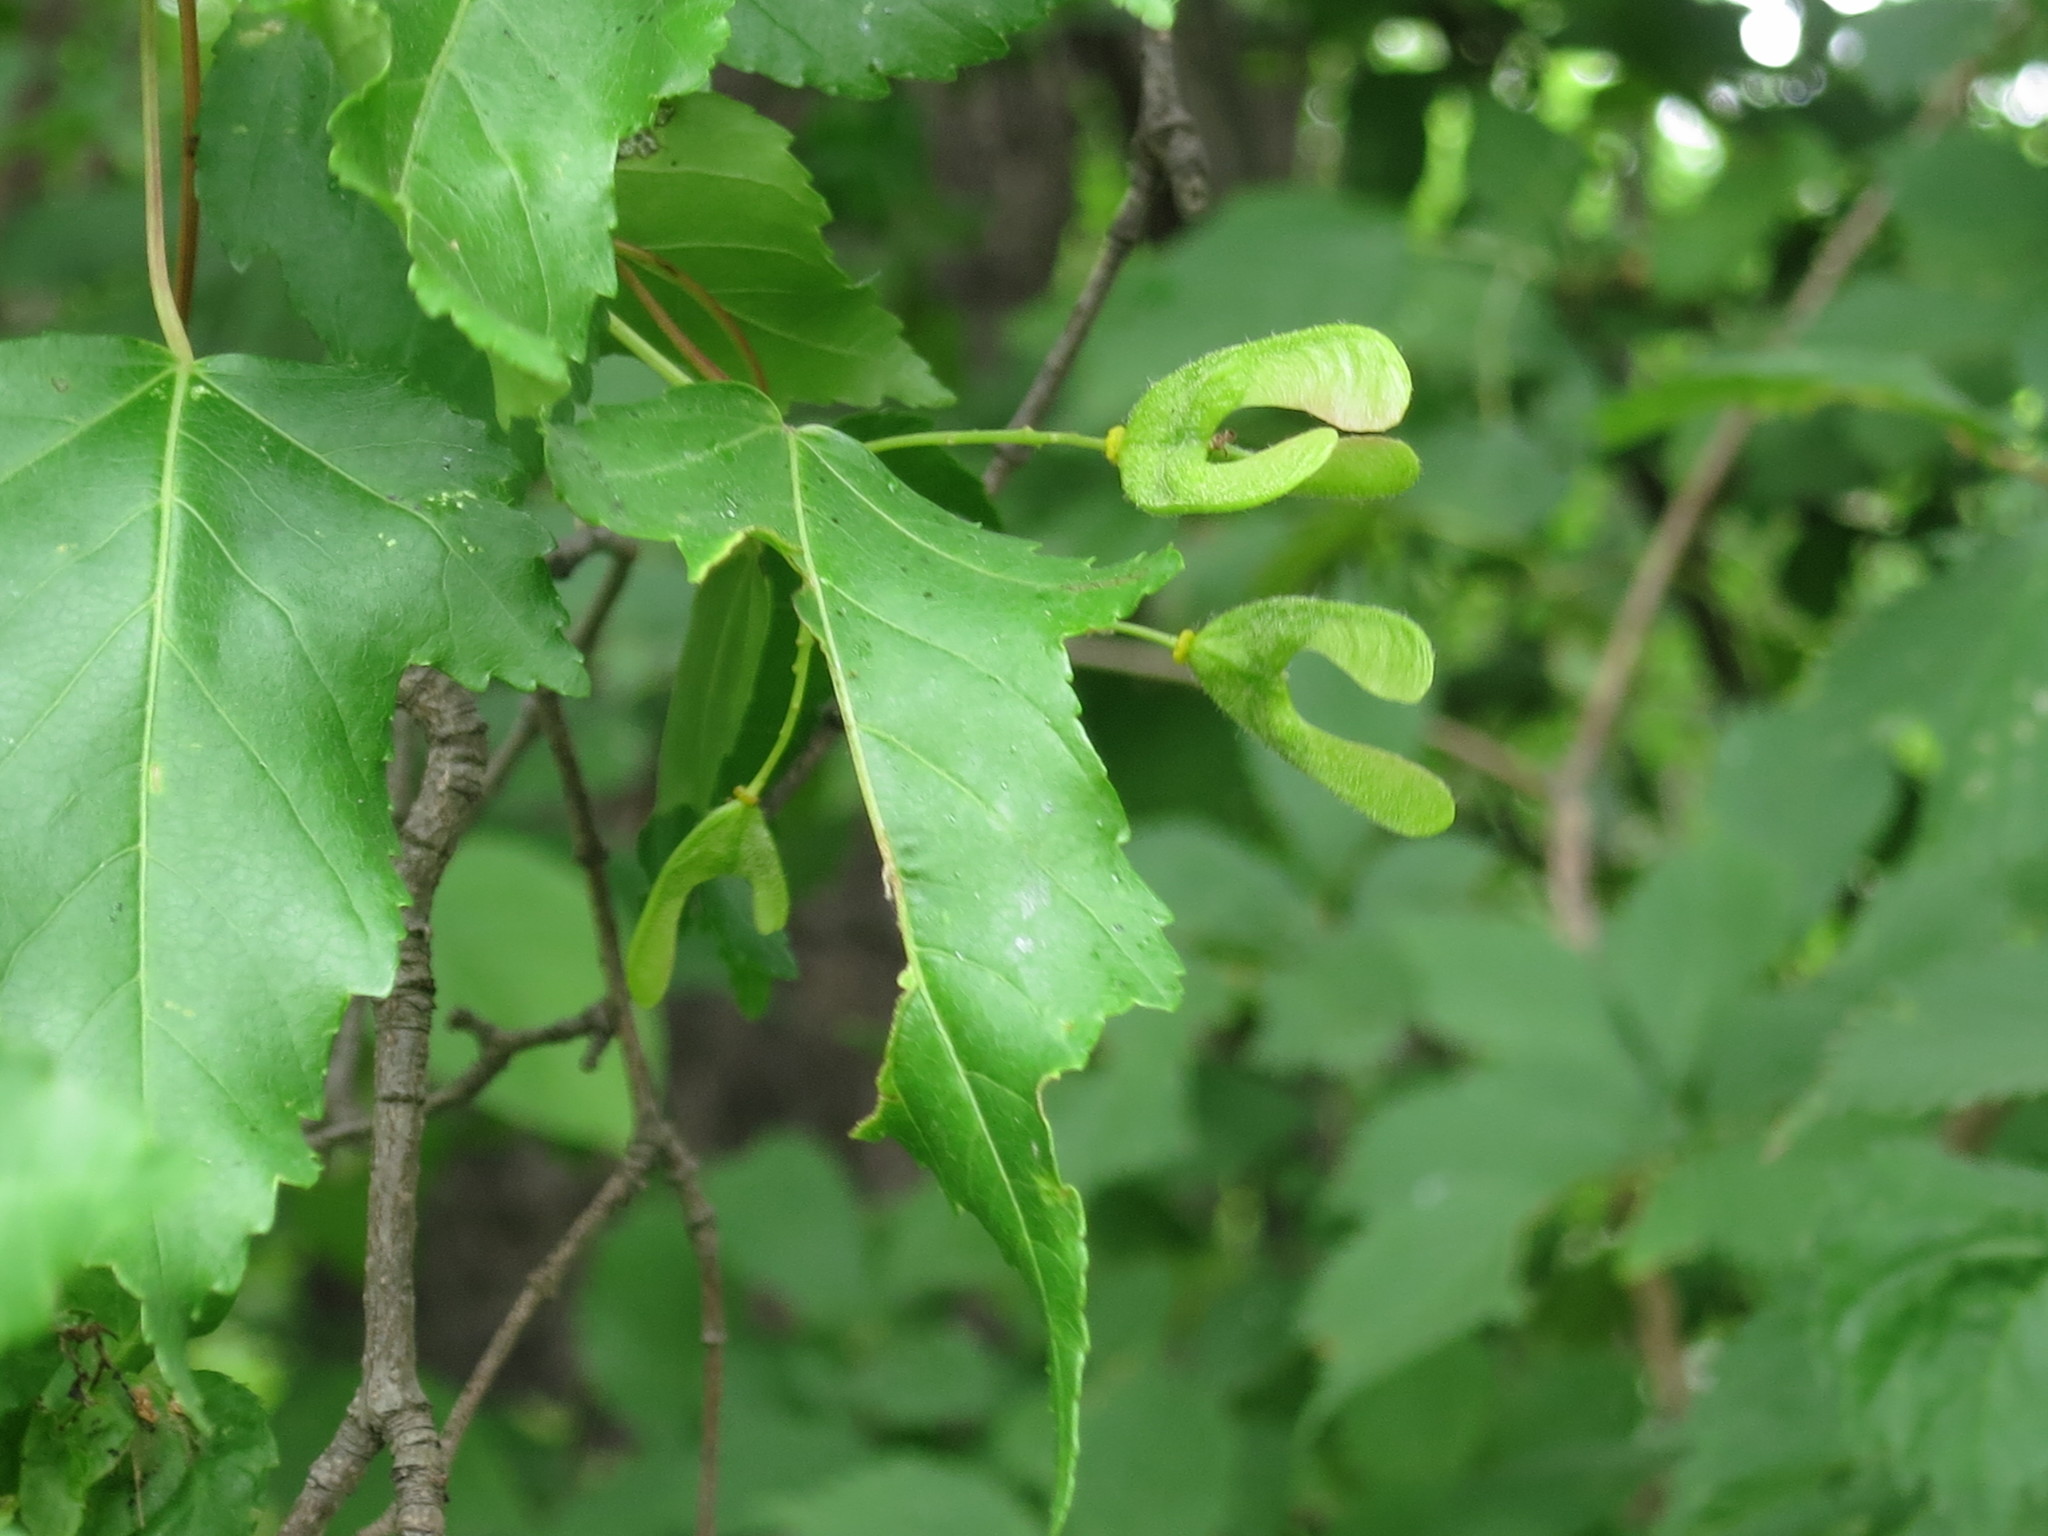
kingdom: Plantae
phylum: Tracheophyta
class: Magnoliopsida
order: Sapindales
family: Sapindaceae
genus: Acer
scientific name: Acer tataricum
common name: Tartar maple
